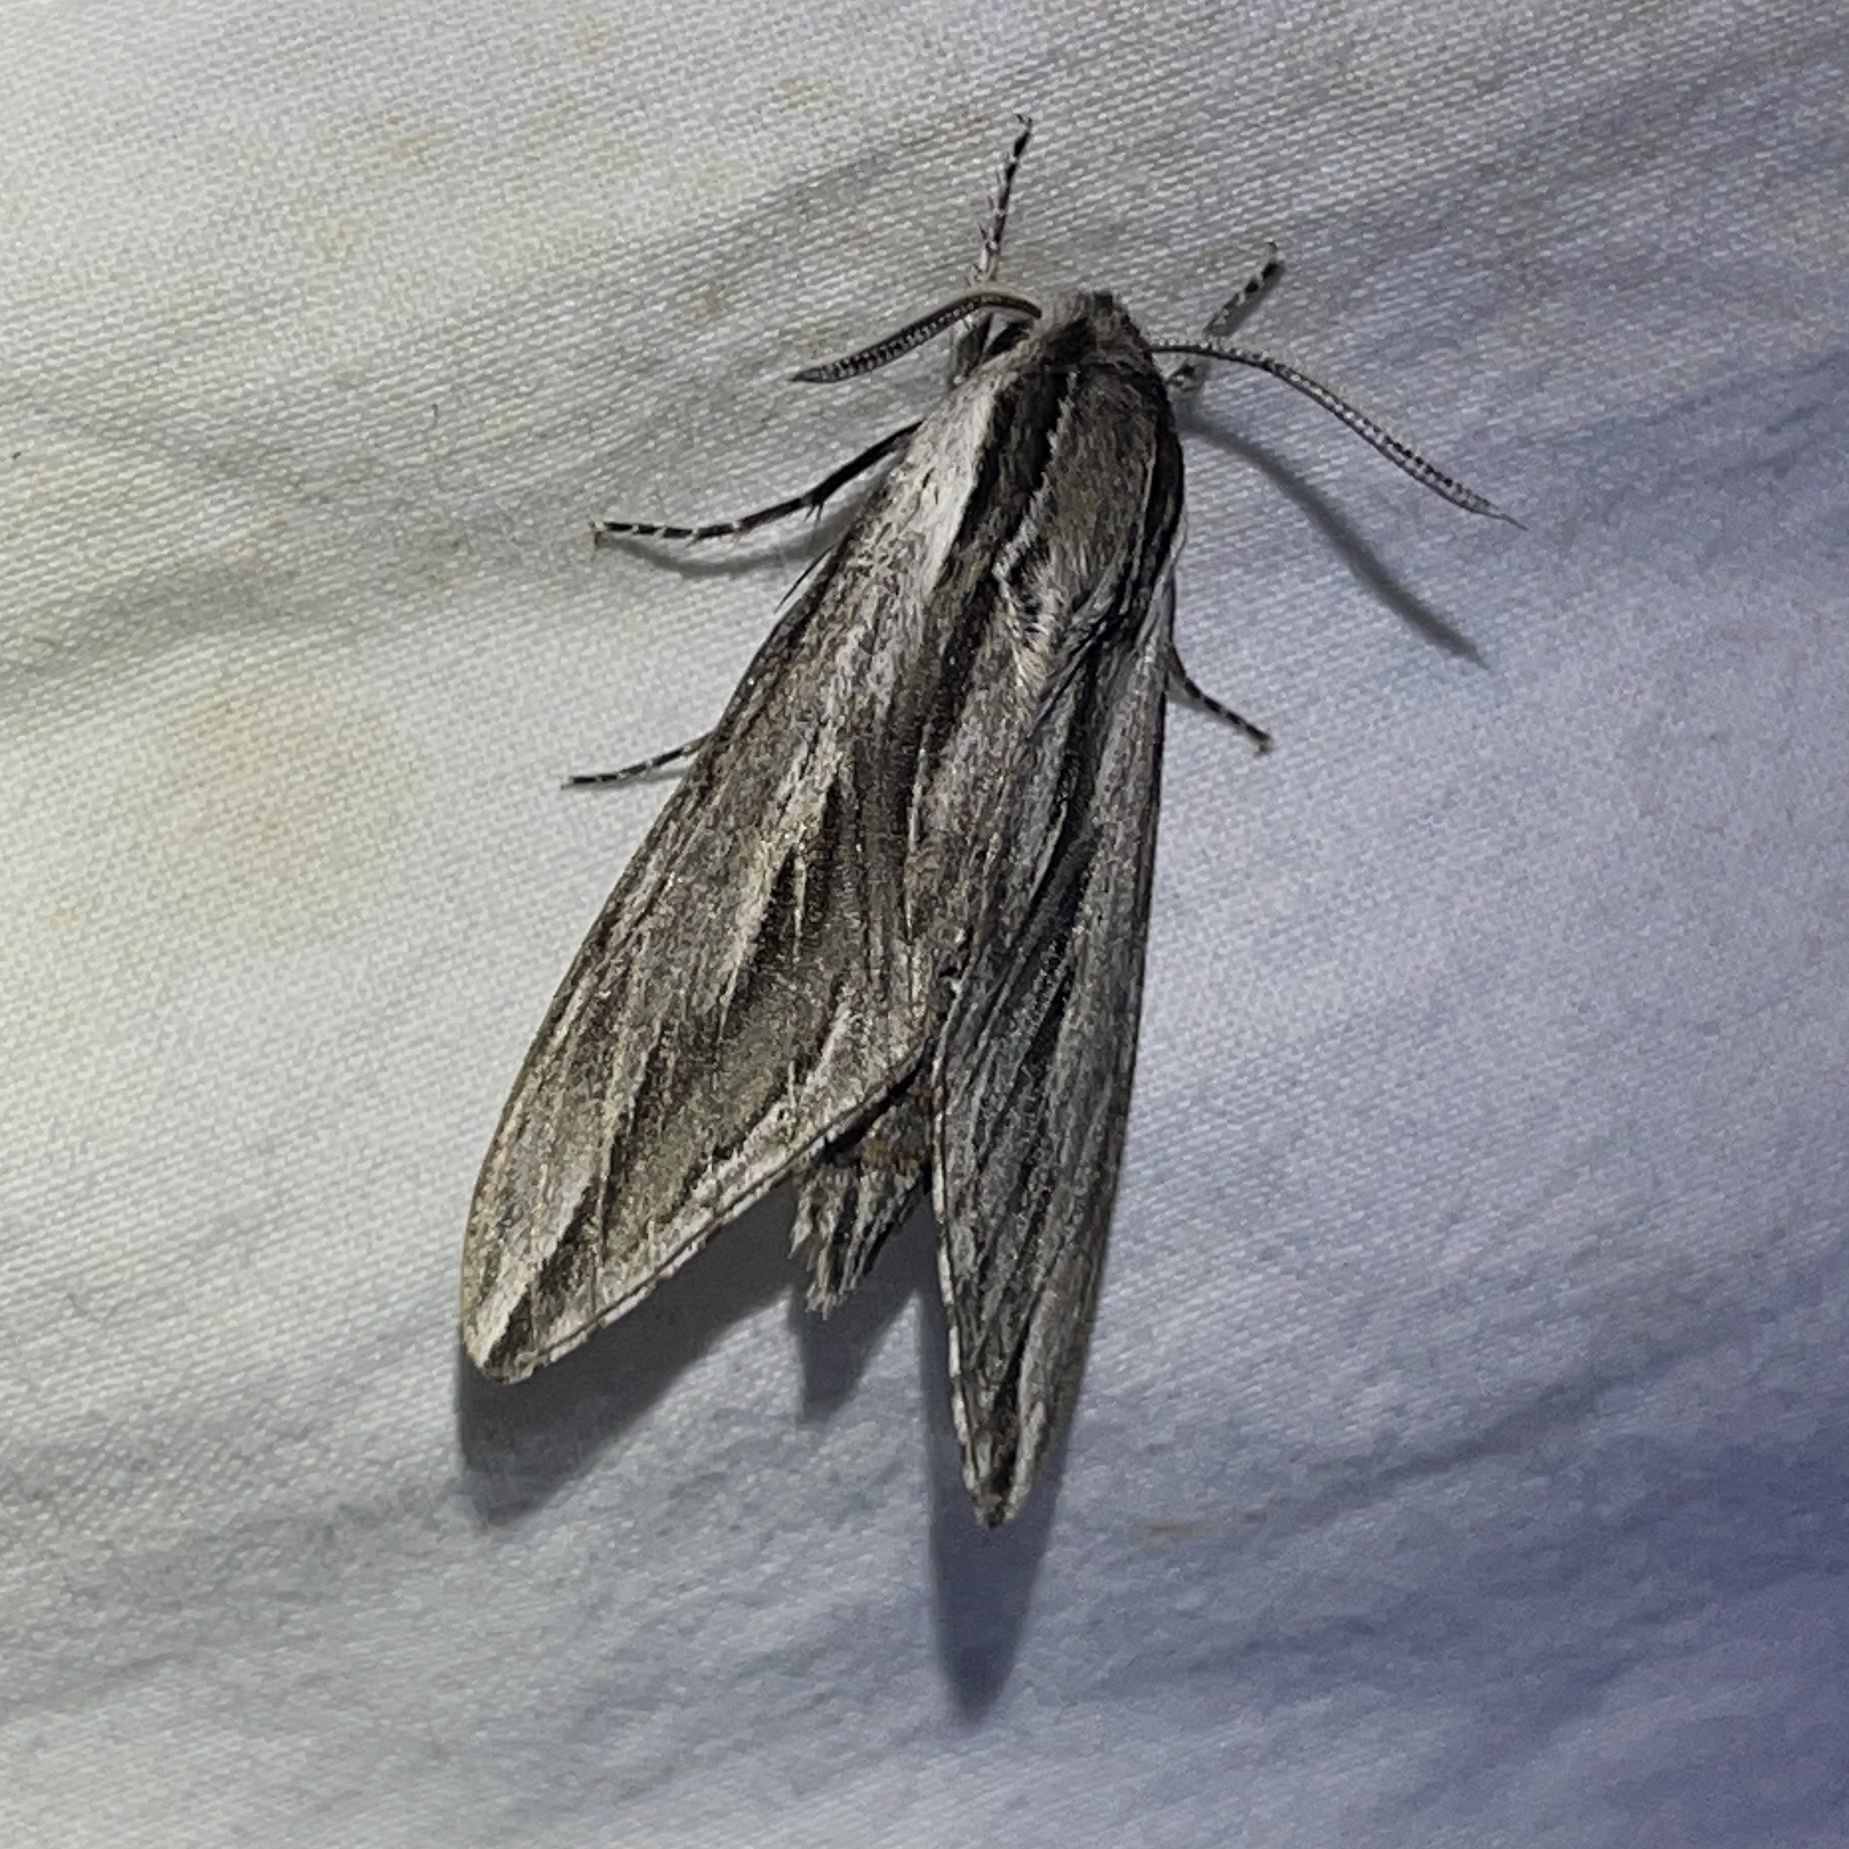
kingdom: Animalia
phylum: Arthropoda
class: Insecta
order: Lepidoptera
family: Sphingidae
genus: Sphinx
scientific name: Sphinx vanbuskirki
